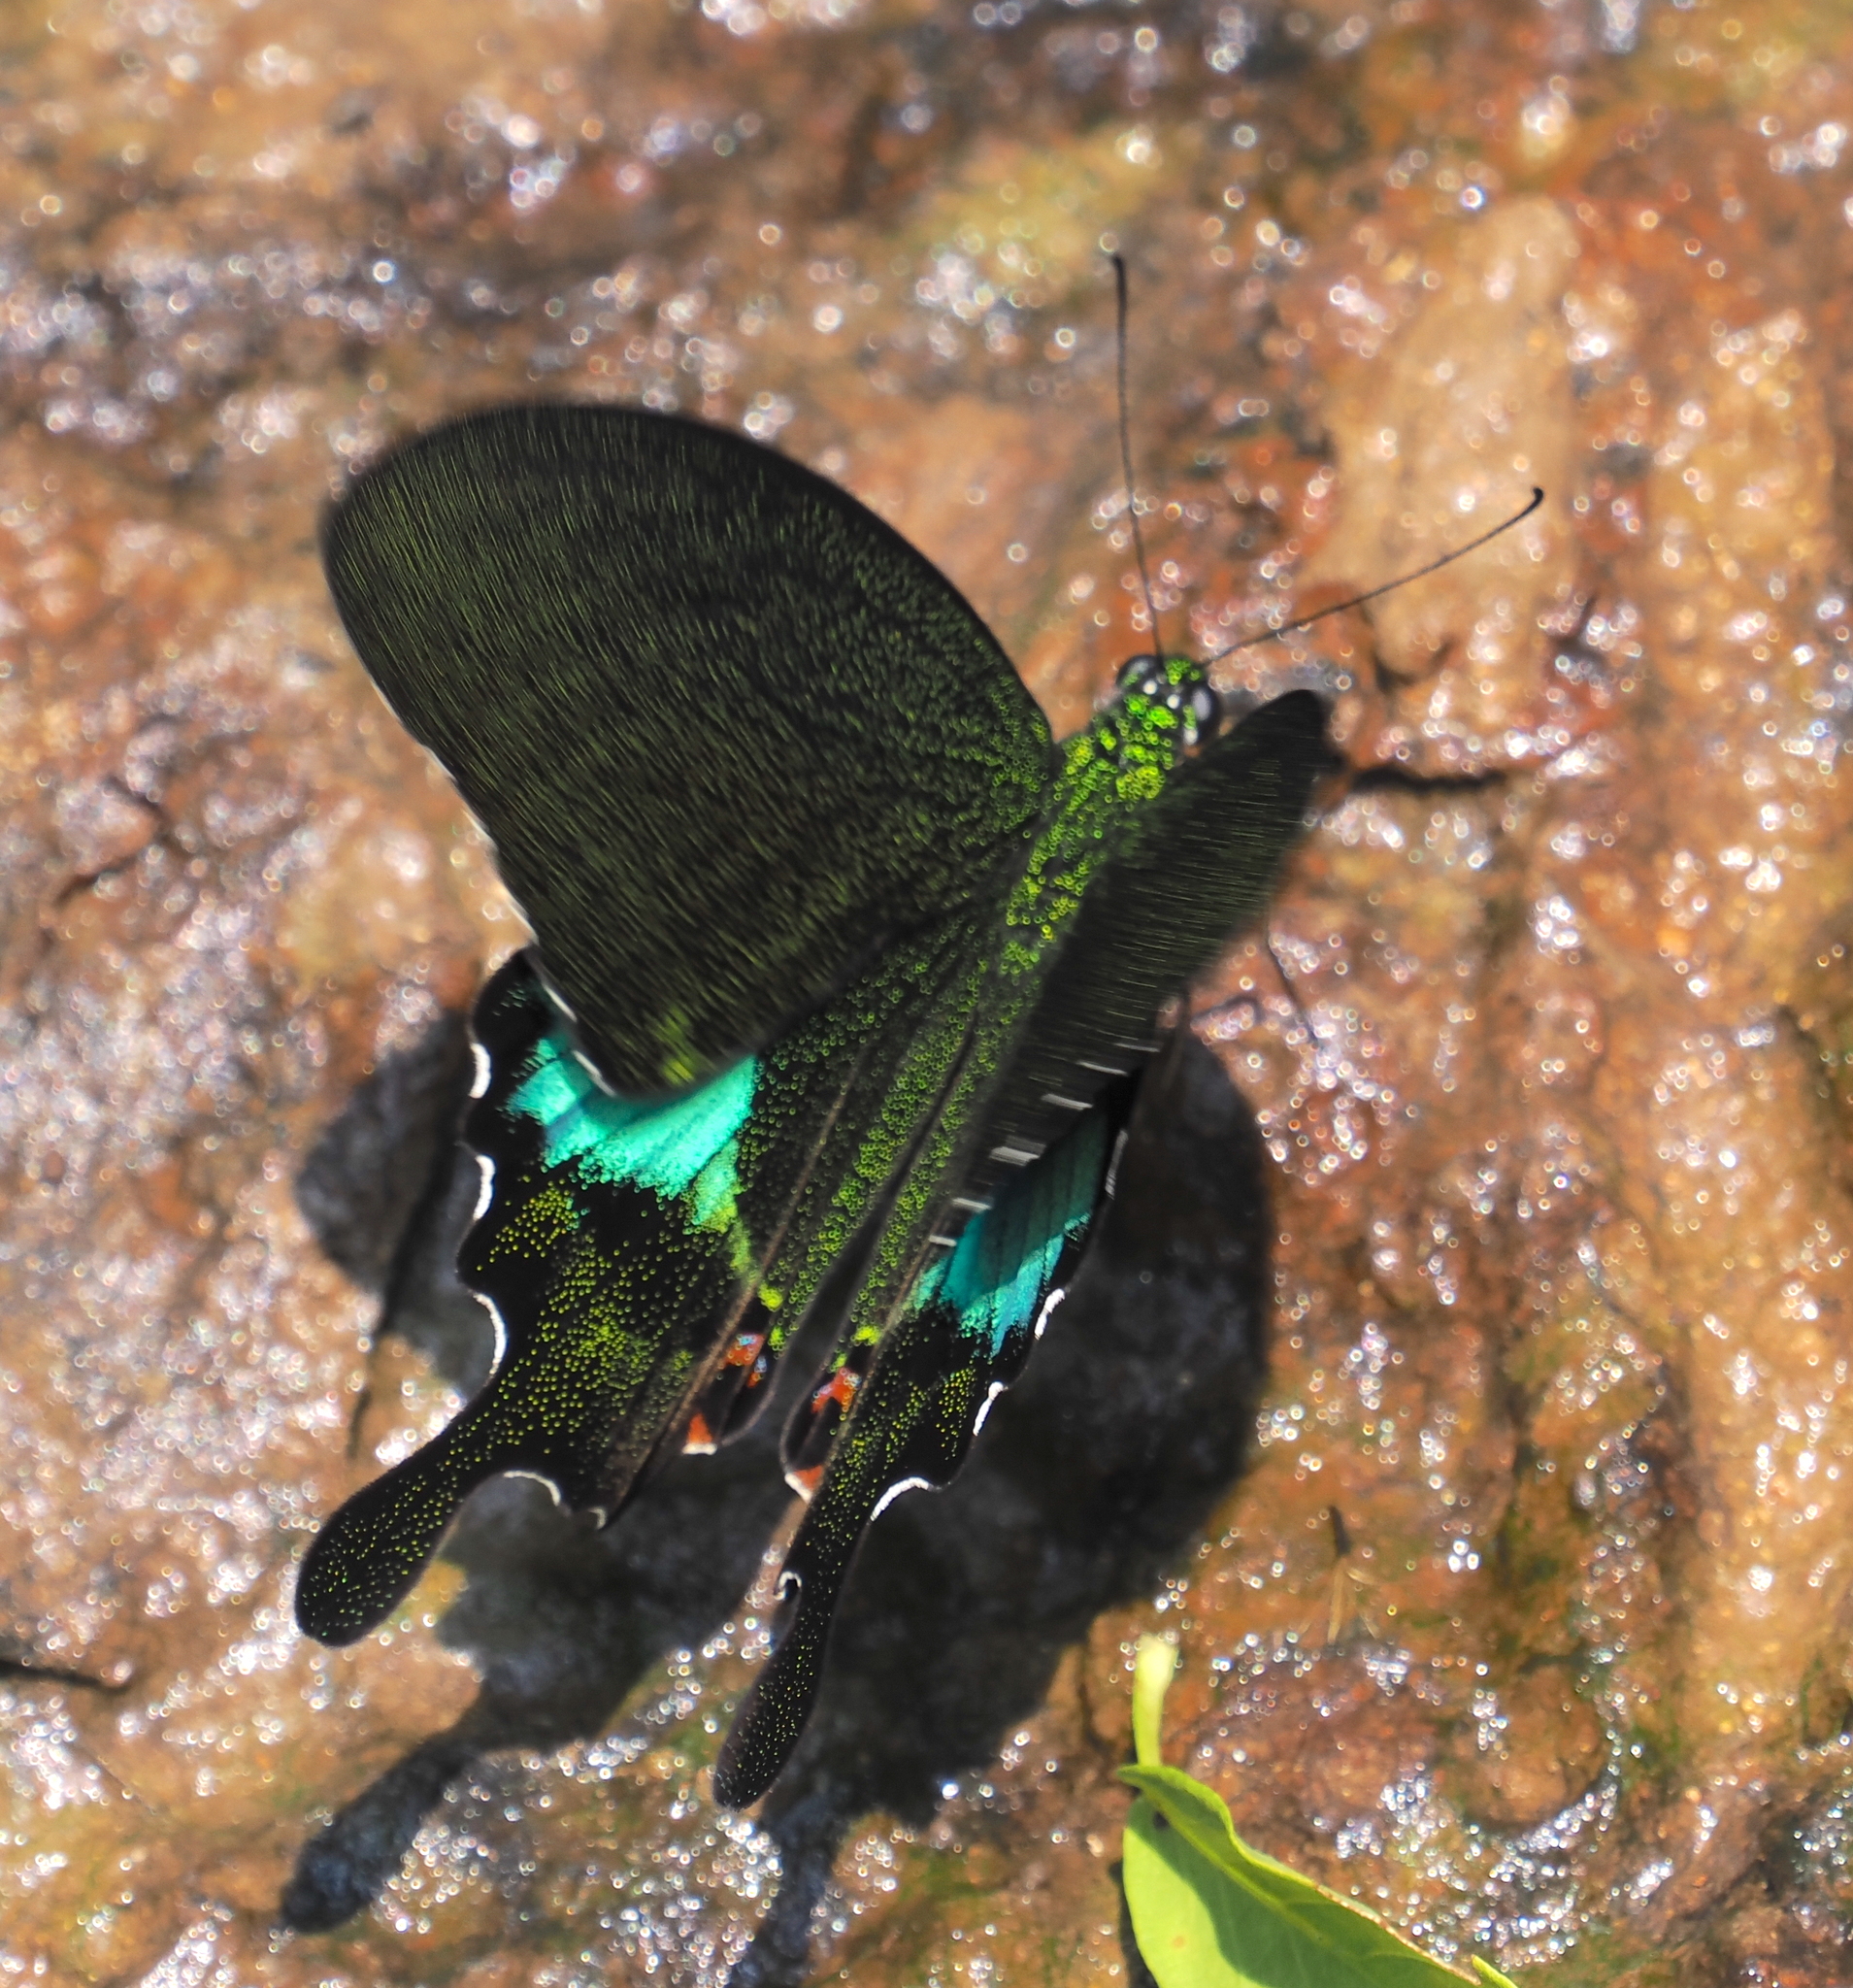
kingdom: Animalia
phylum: Arthropoda
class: Insecta
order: Lepidoptera
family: Papilionidae
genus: Papilio
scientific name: Papilio paris
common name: Paris peacock
